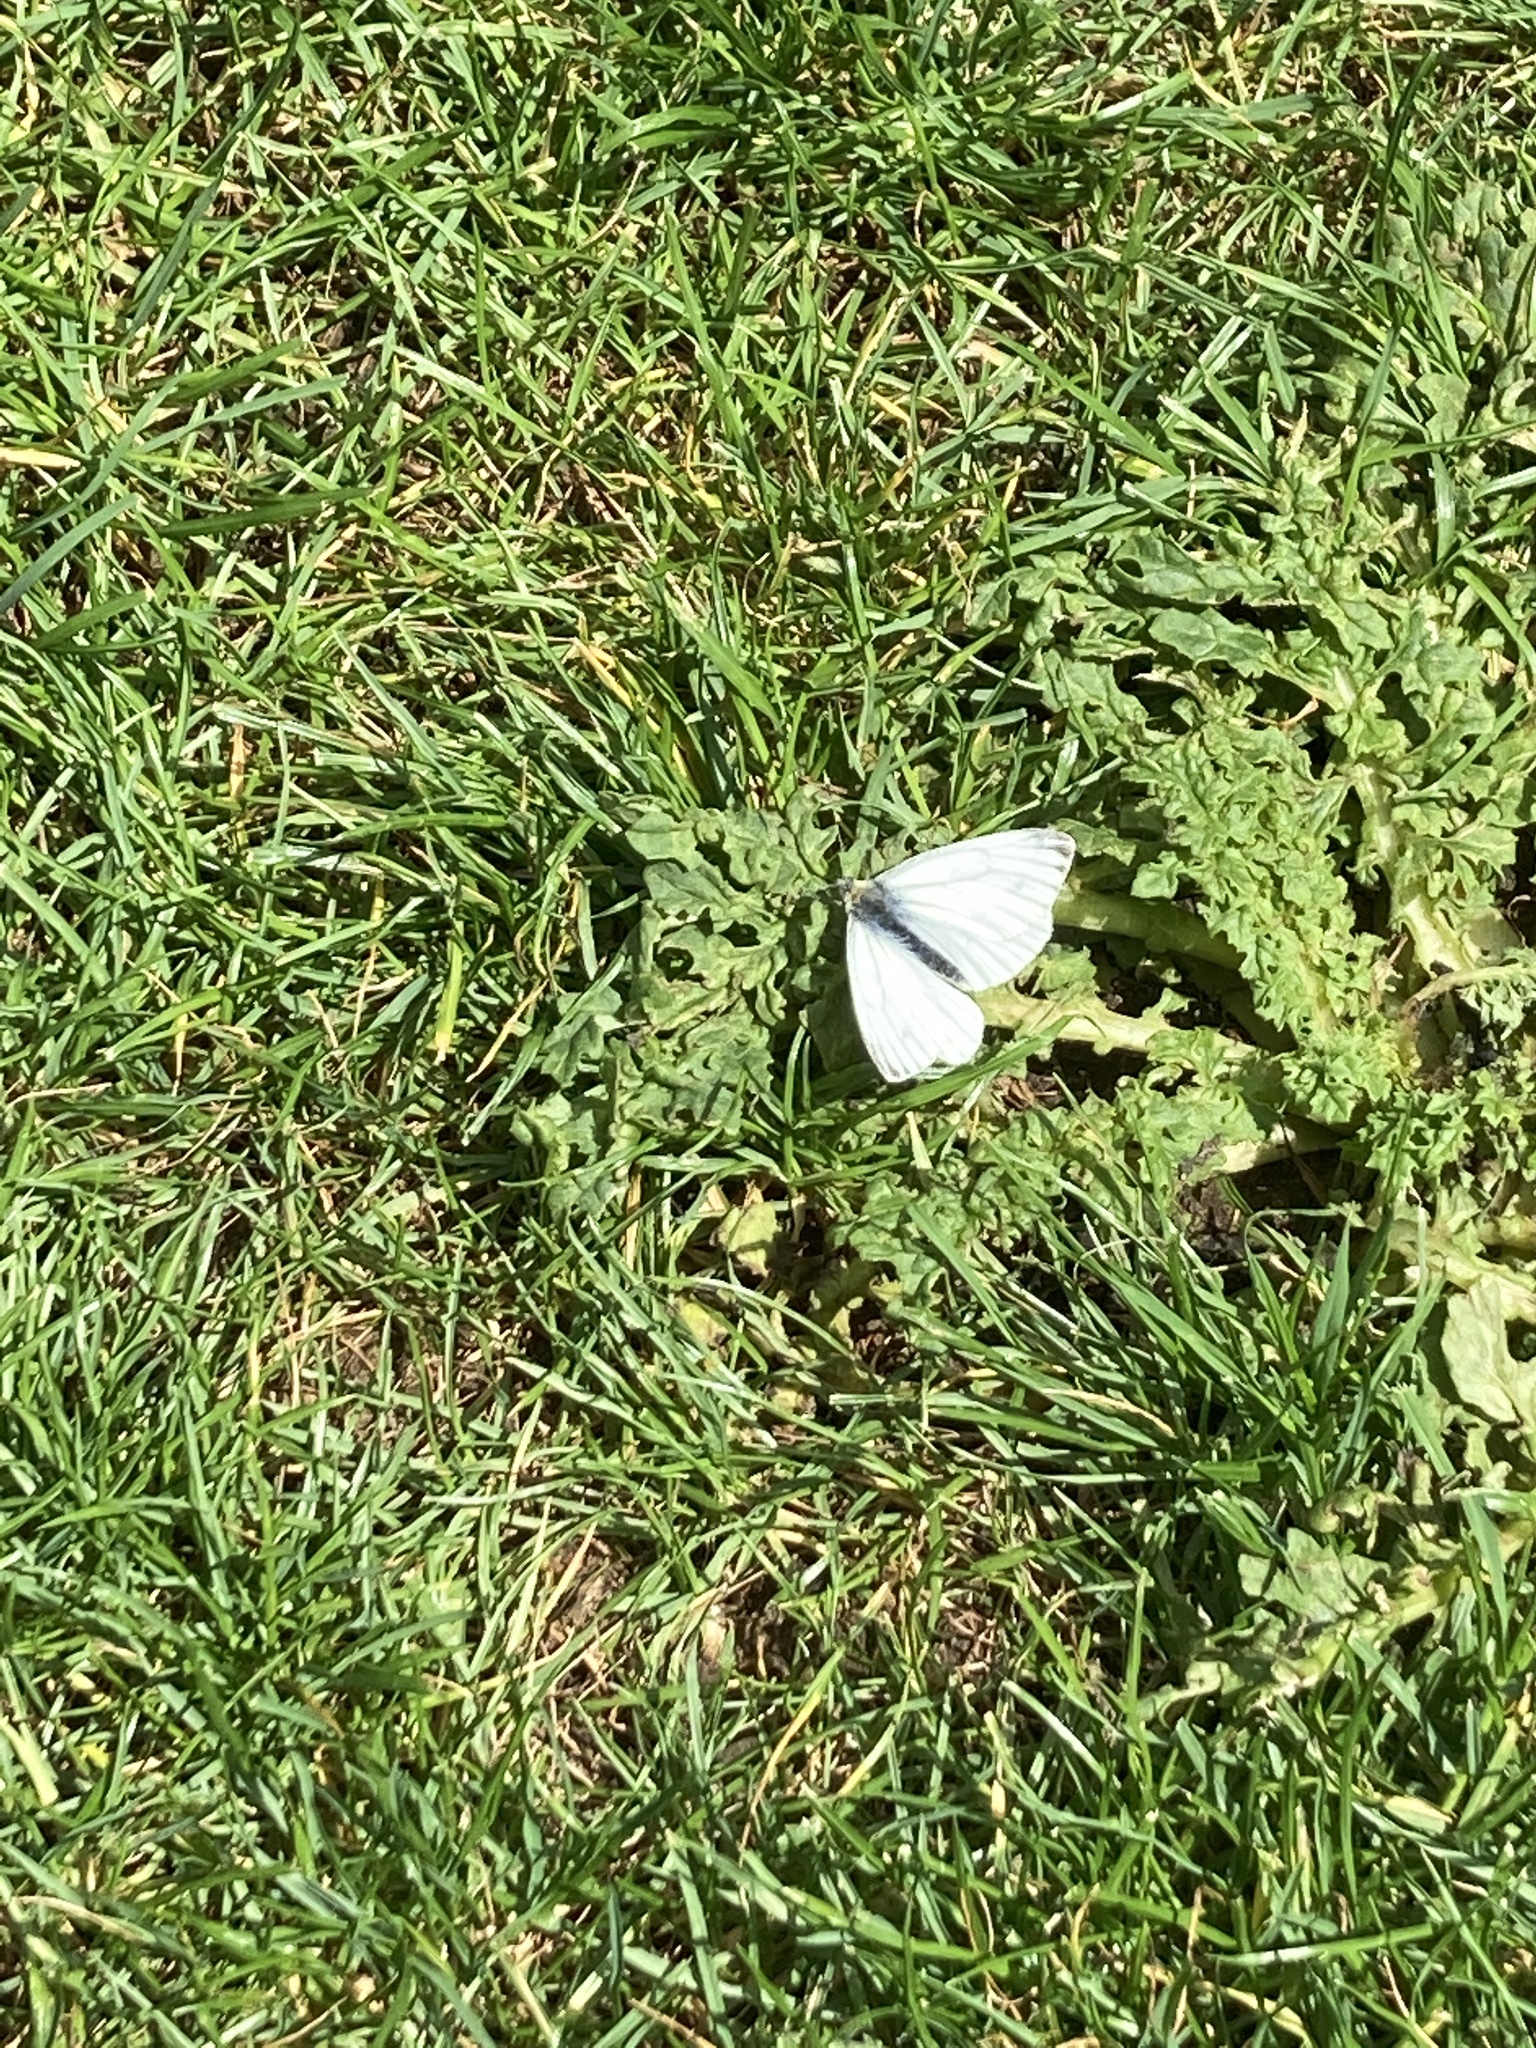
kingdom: Animalia
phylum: Arthropoda
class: Insecta
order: Lepidoptera
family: Pieridae
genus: Pieris
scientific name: Pieris napi
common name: Green-veined white
